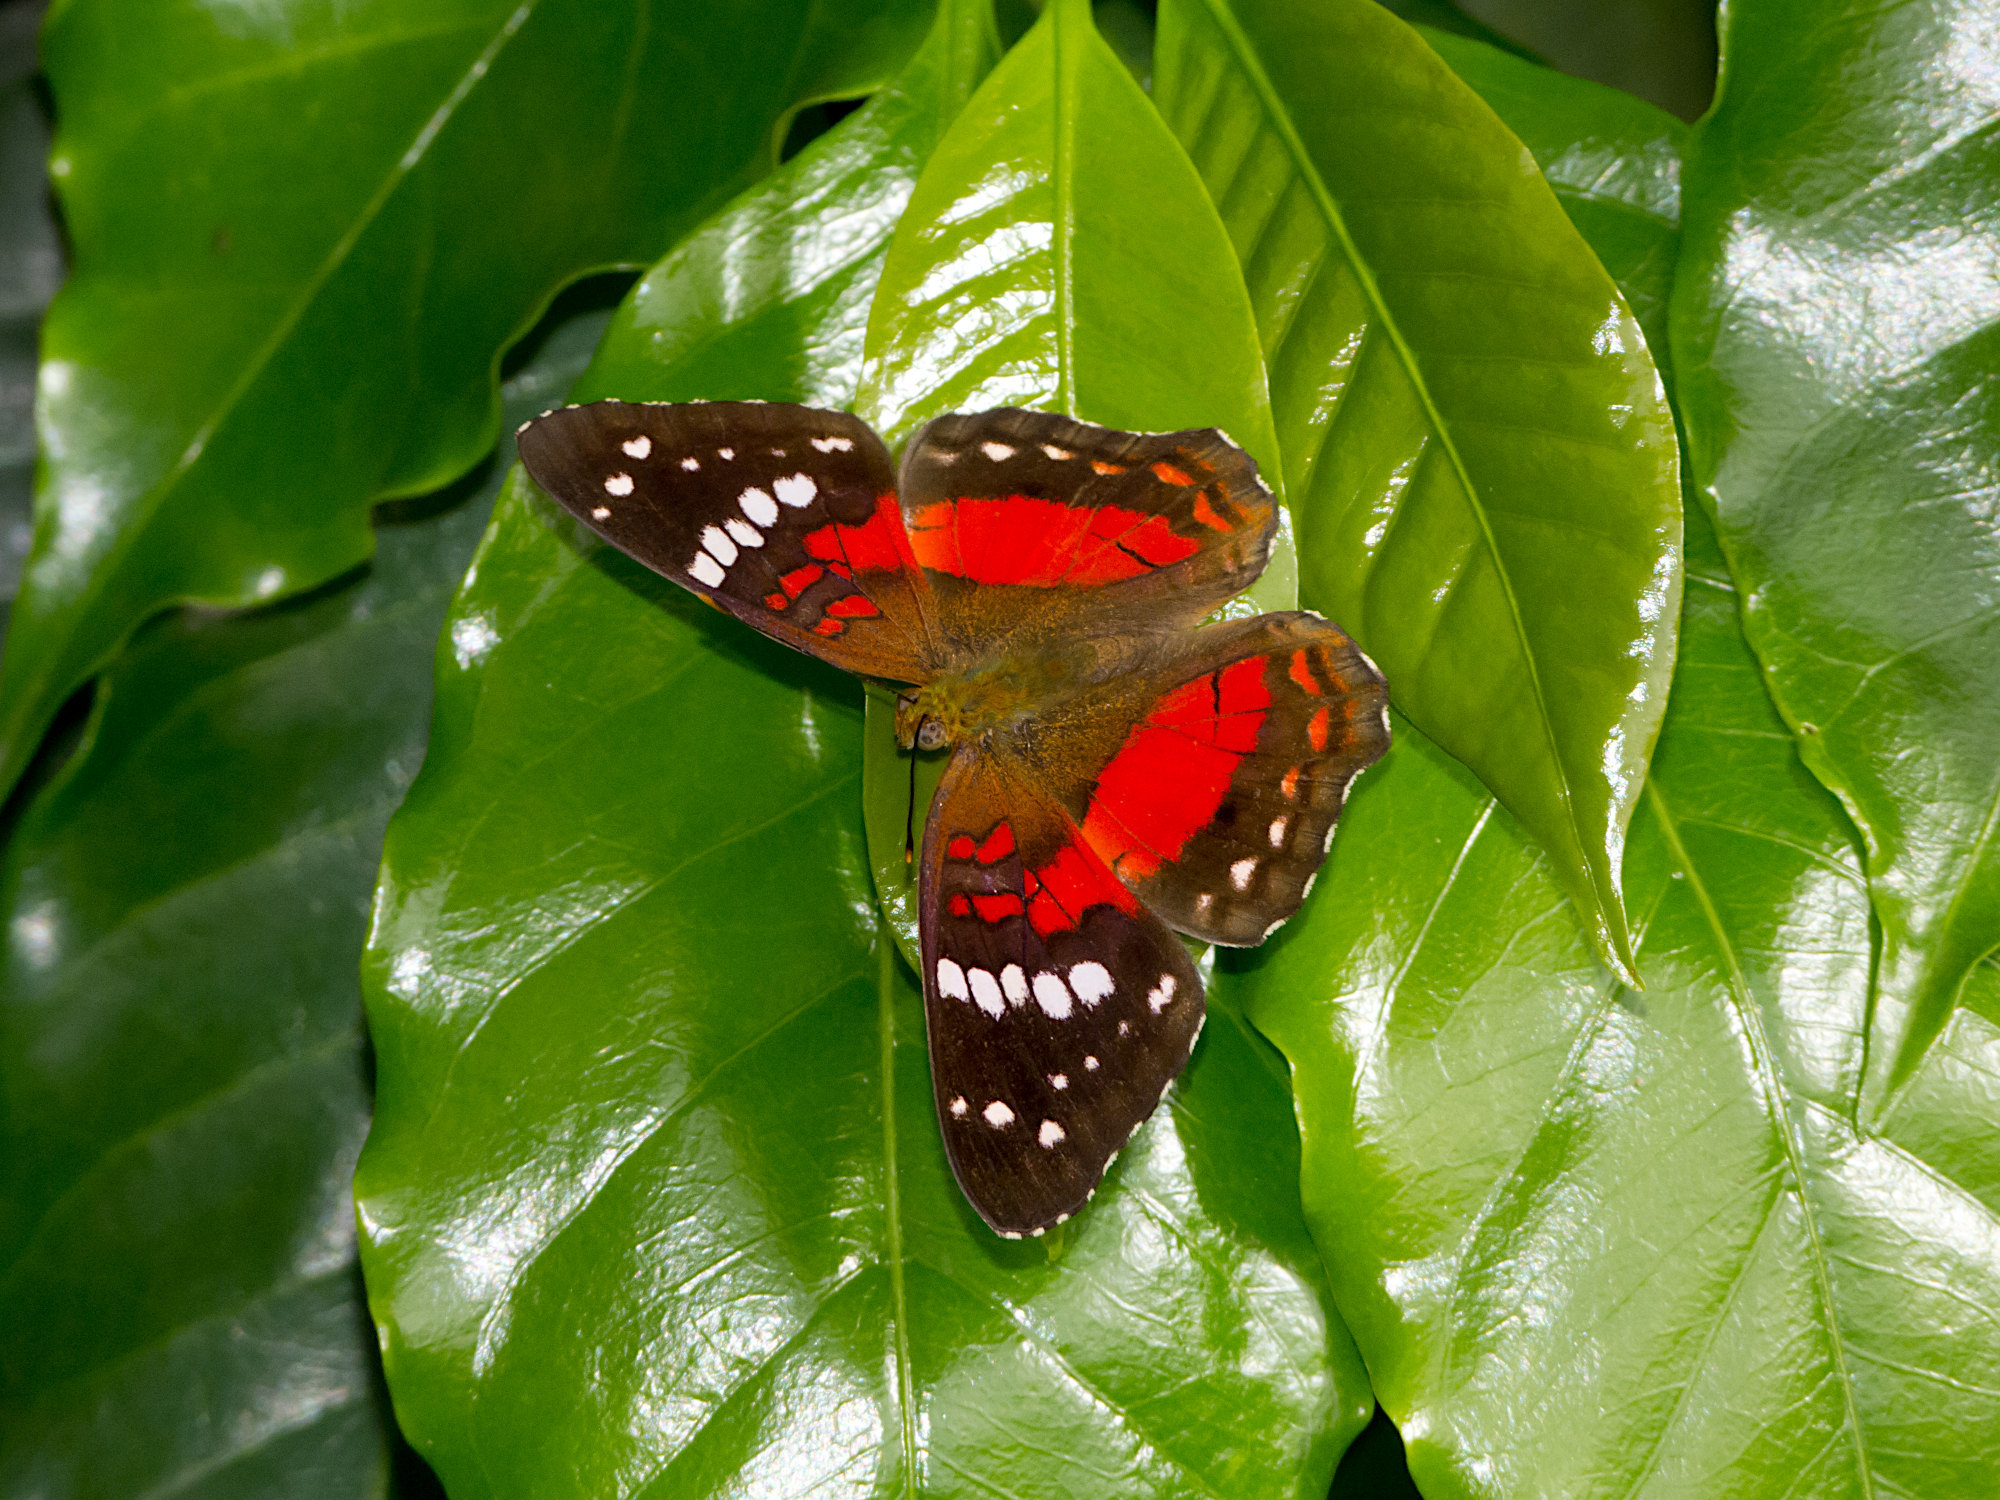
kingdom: Animalia
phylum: Arthropoda
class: Insecta
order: Lepidoptera
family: Nymphalidae
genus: Anartia
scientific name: Anartia amathea
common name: Red peacock
